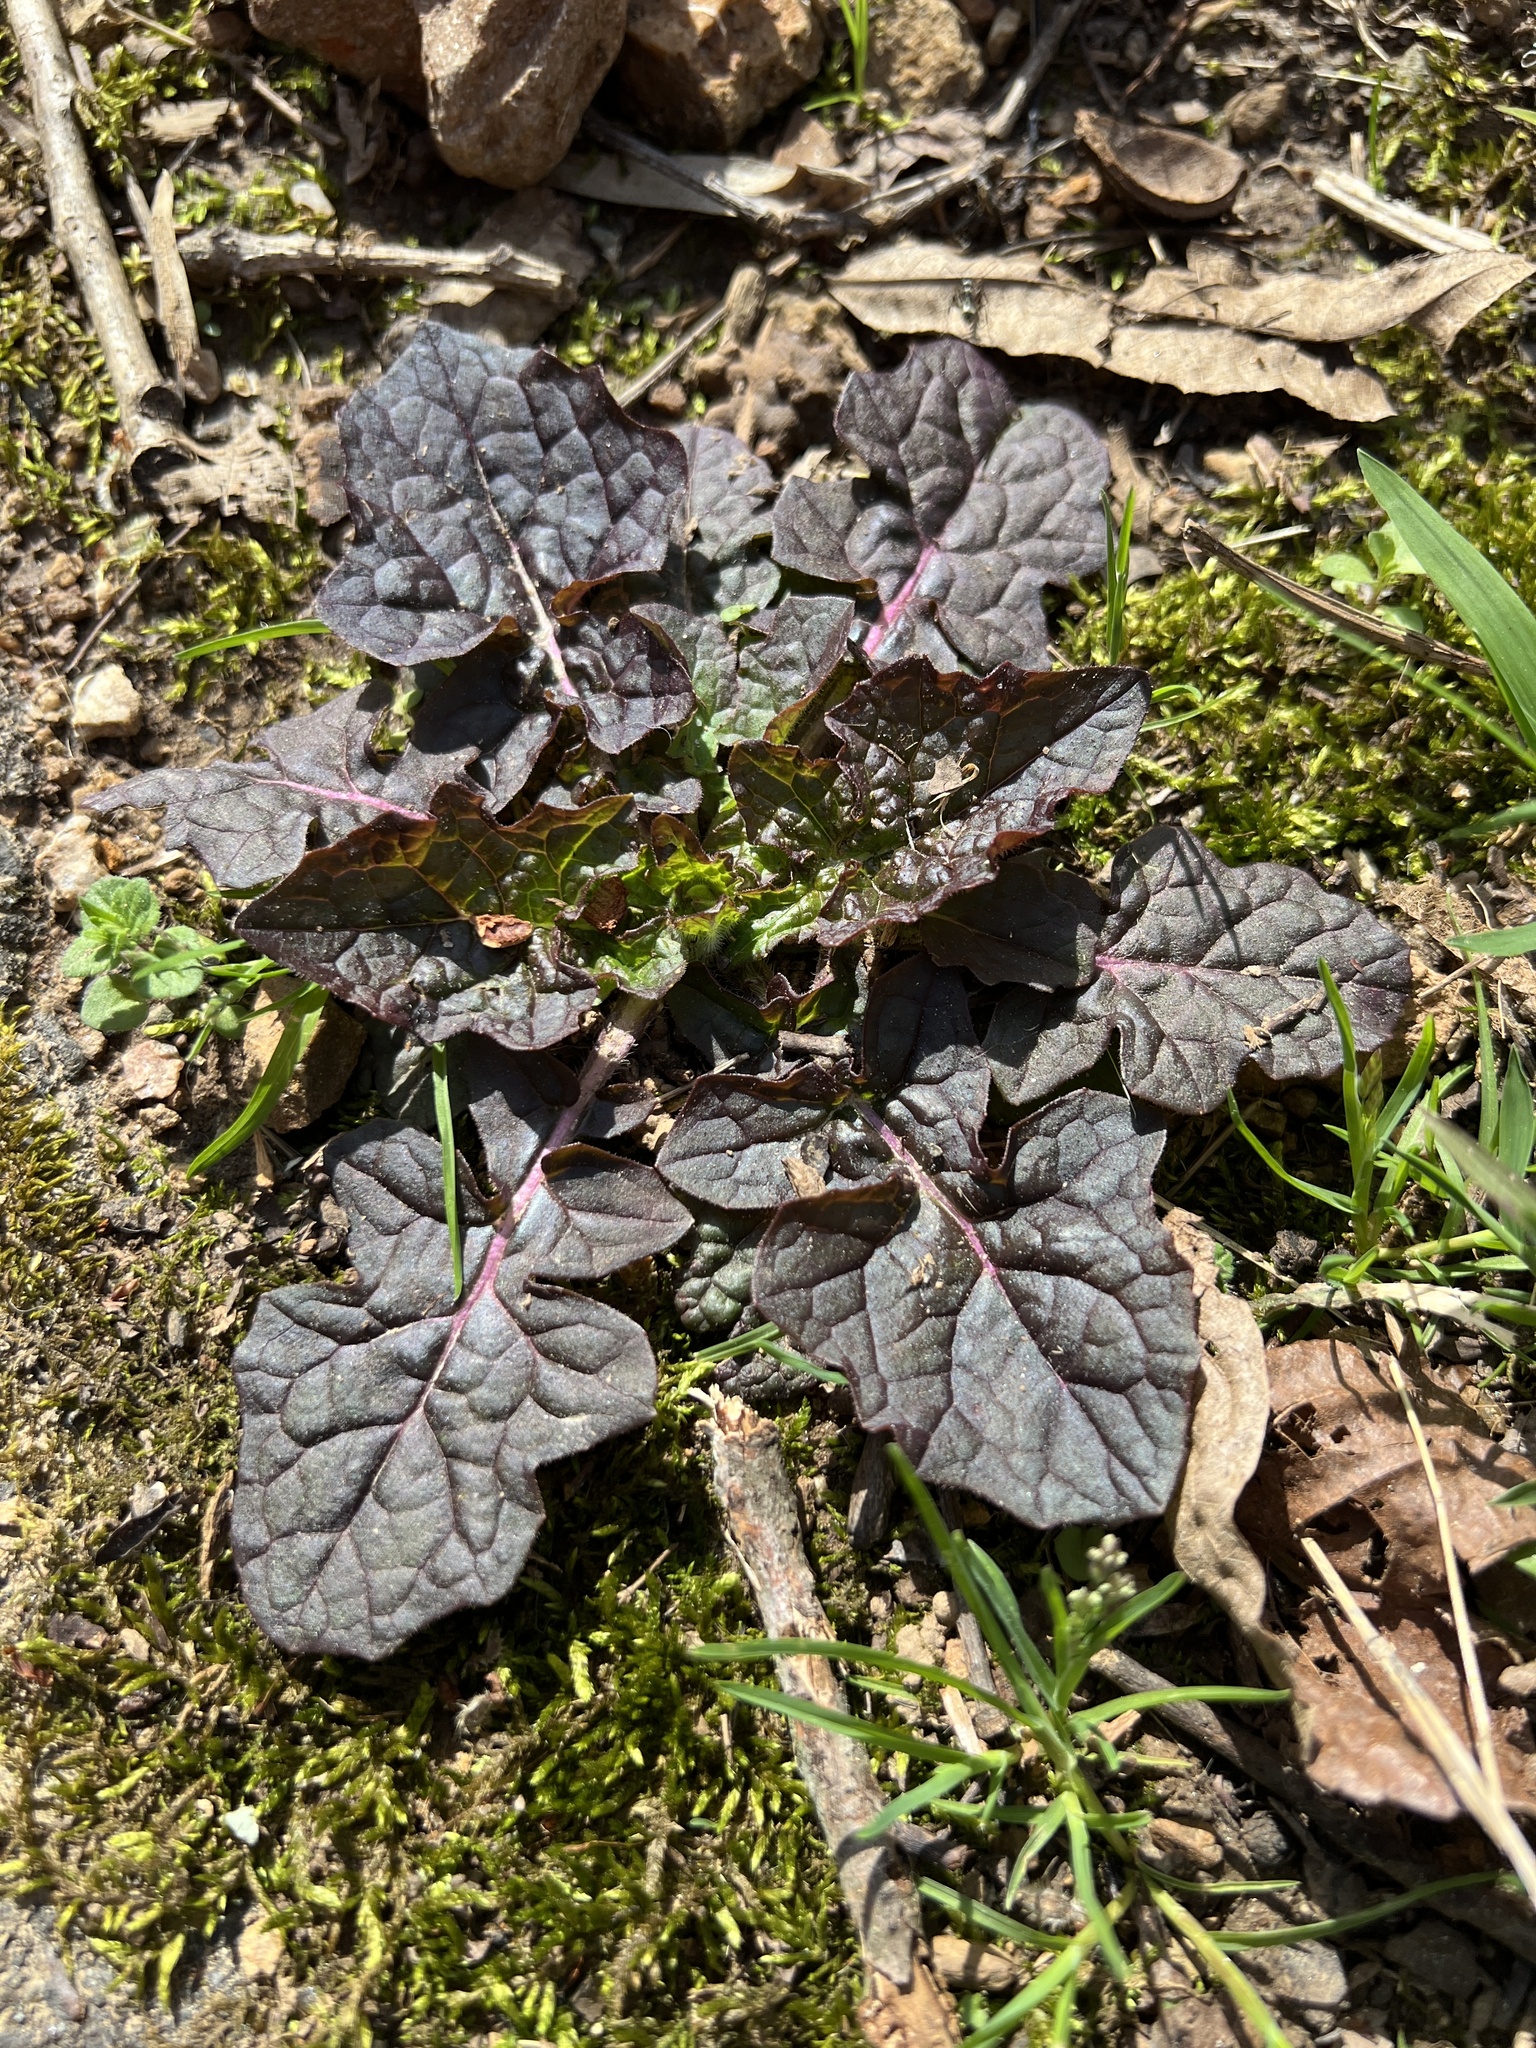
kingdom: Plantae
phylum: Tracheophyta
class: Magnoliopsida
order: Lamiales
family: Lamiaceae
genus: Salvia
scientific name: Salvia lyrata
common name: Cancerweed
